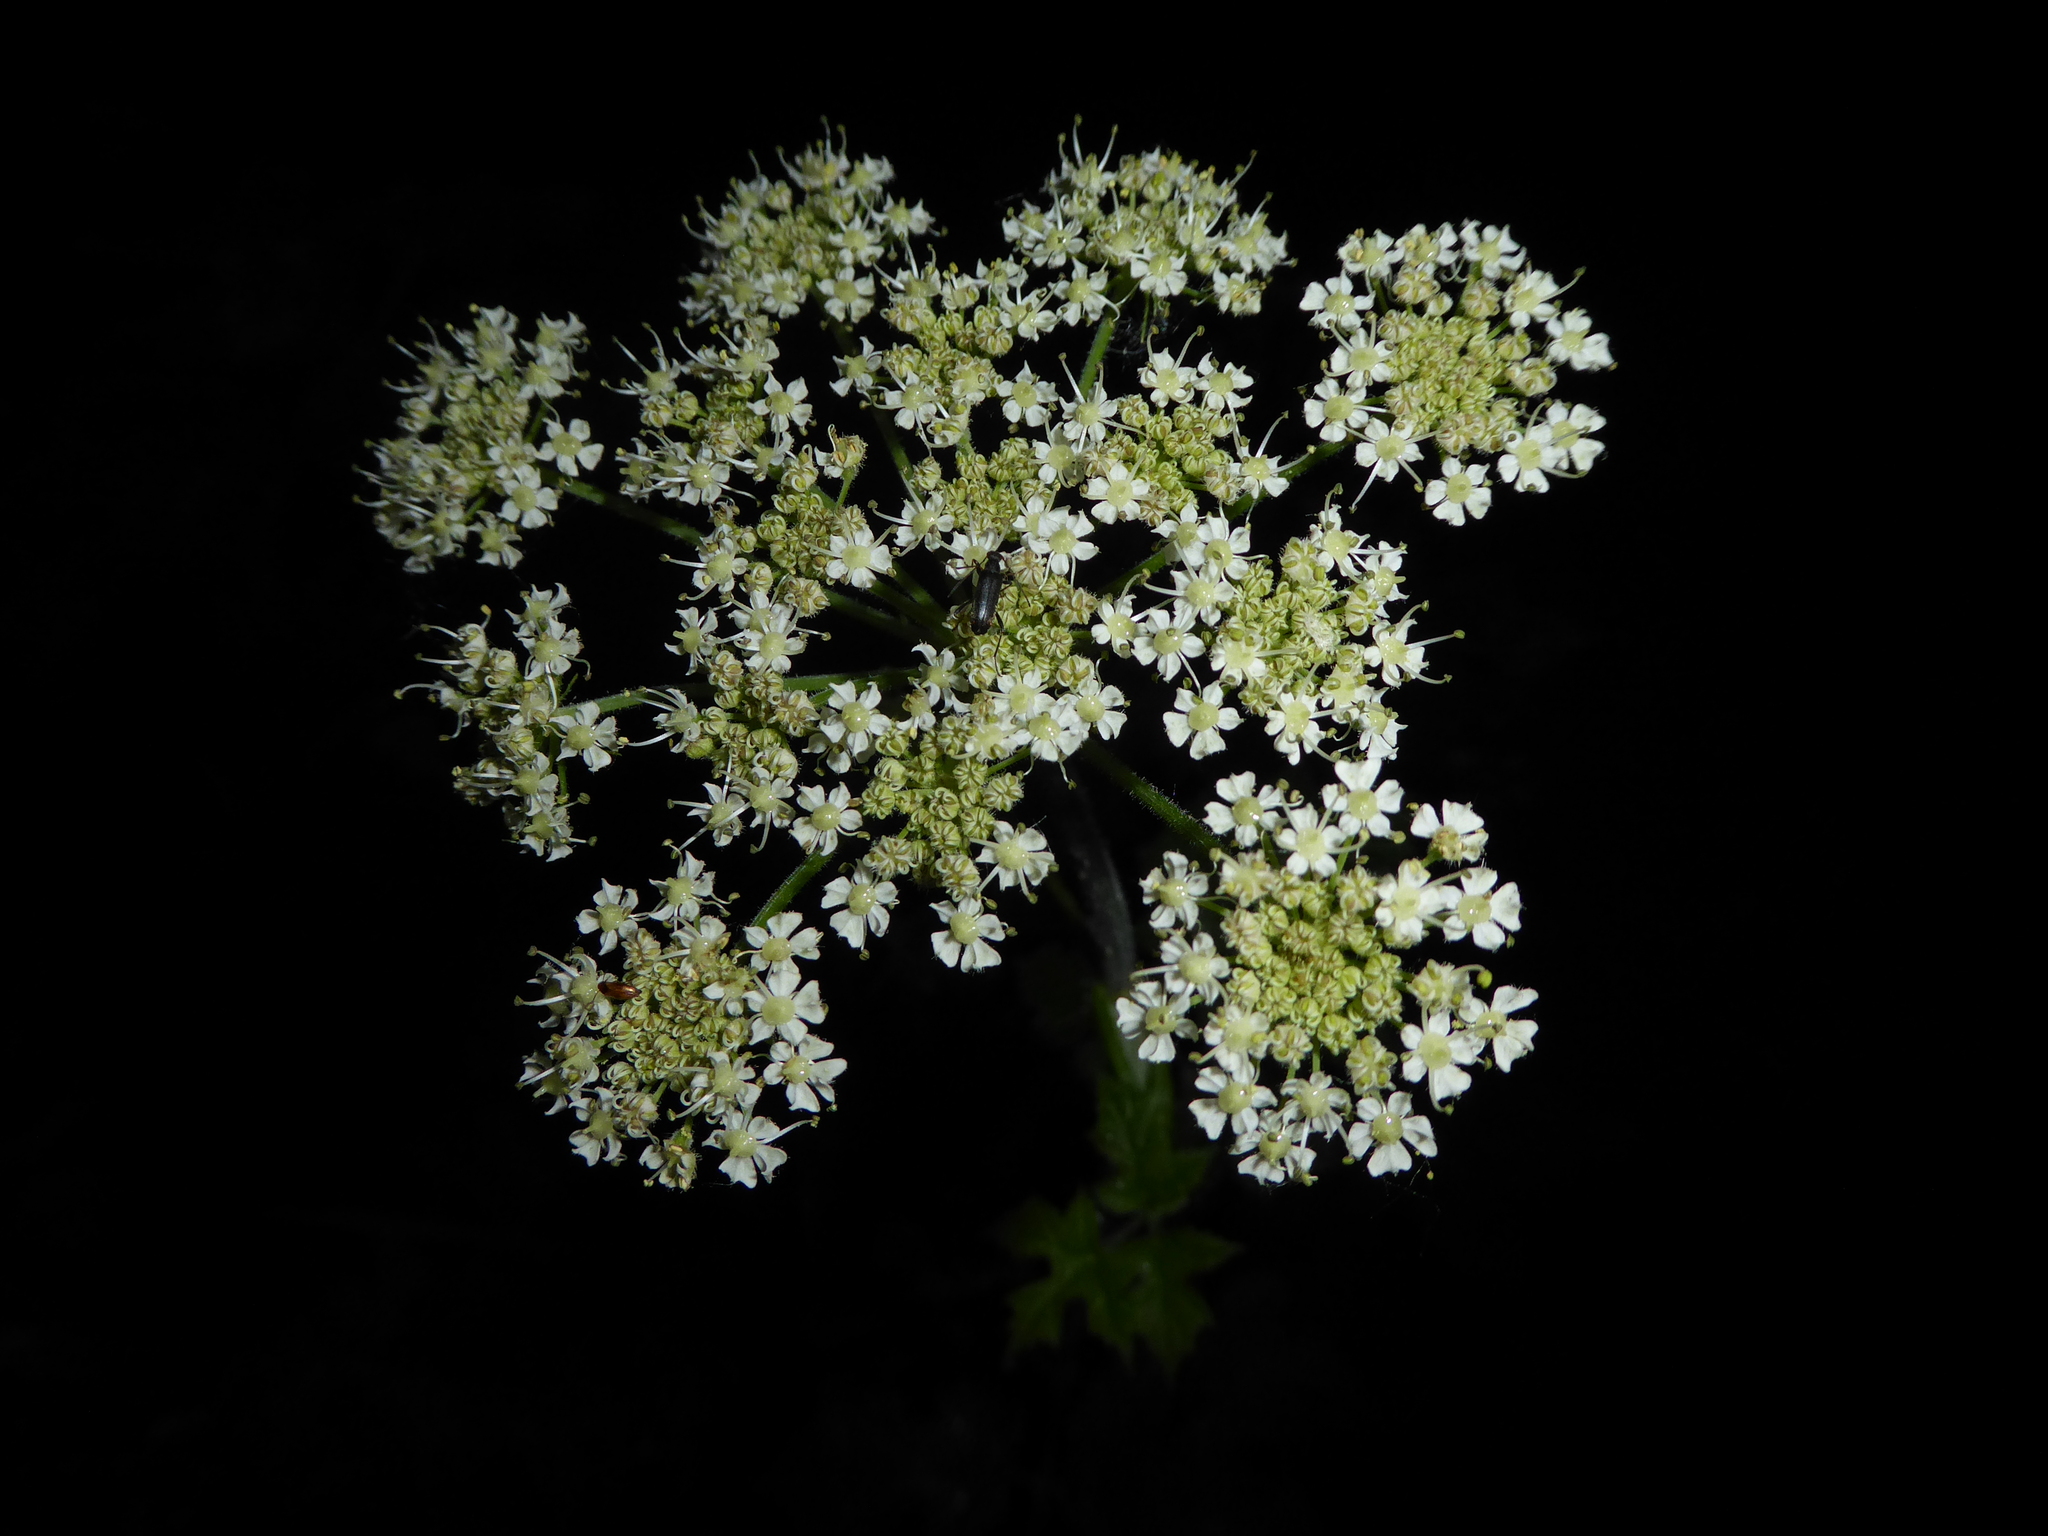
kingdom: Animalia
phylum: Arthropoda
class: Insecta
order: Coleoptera
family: Cerambycidae
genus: Grammoptera
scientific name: Grammoptera ruficornis
